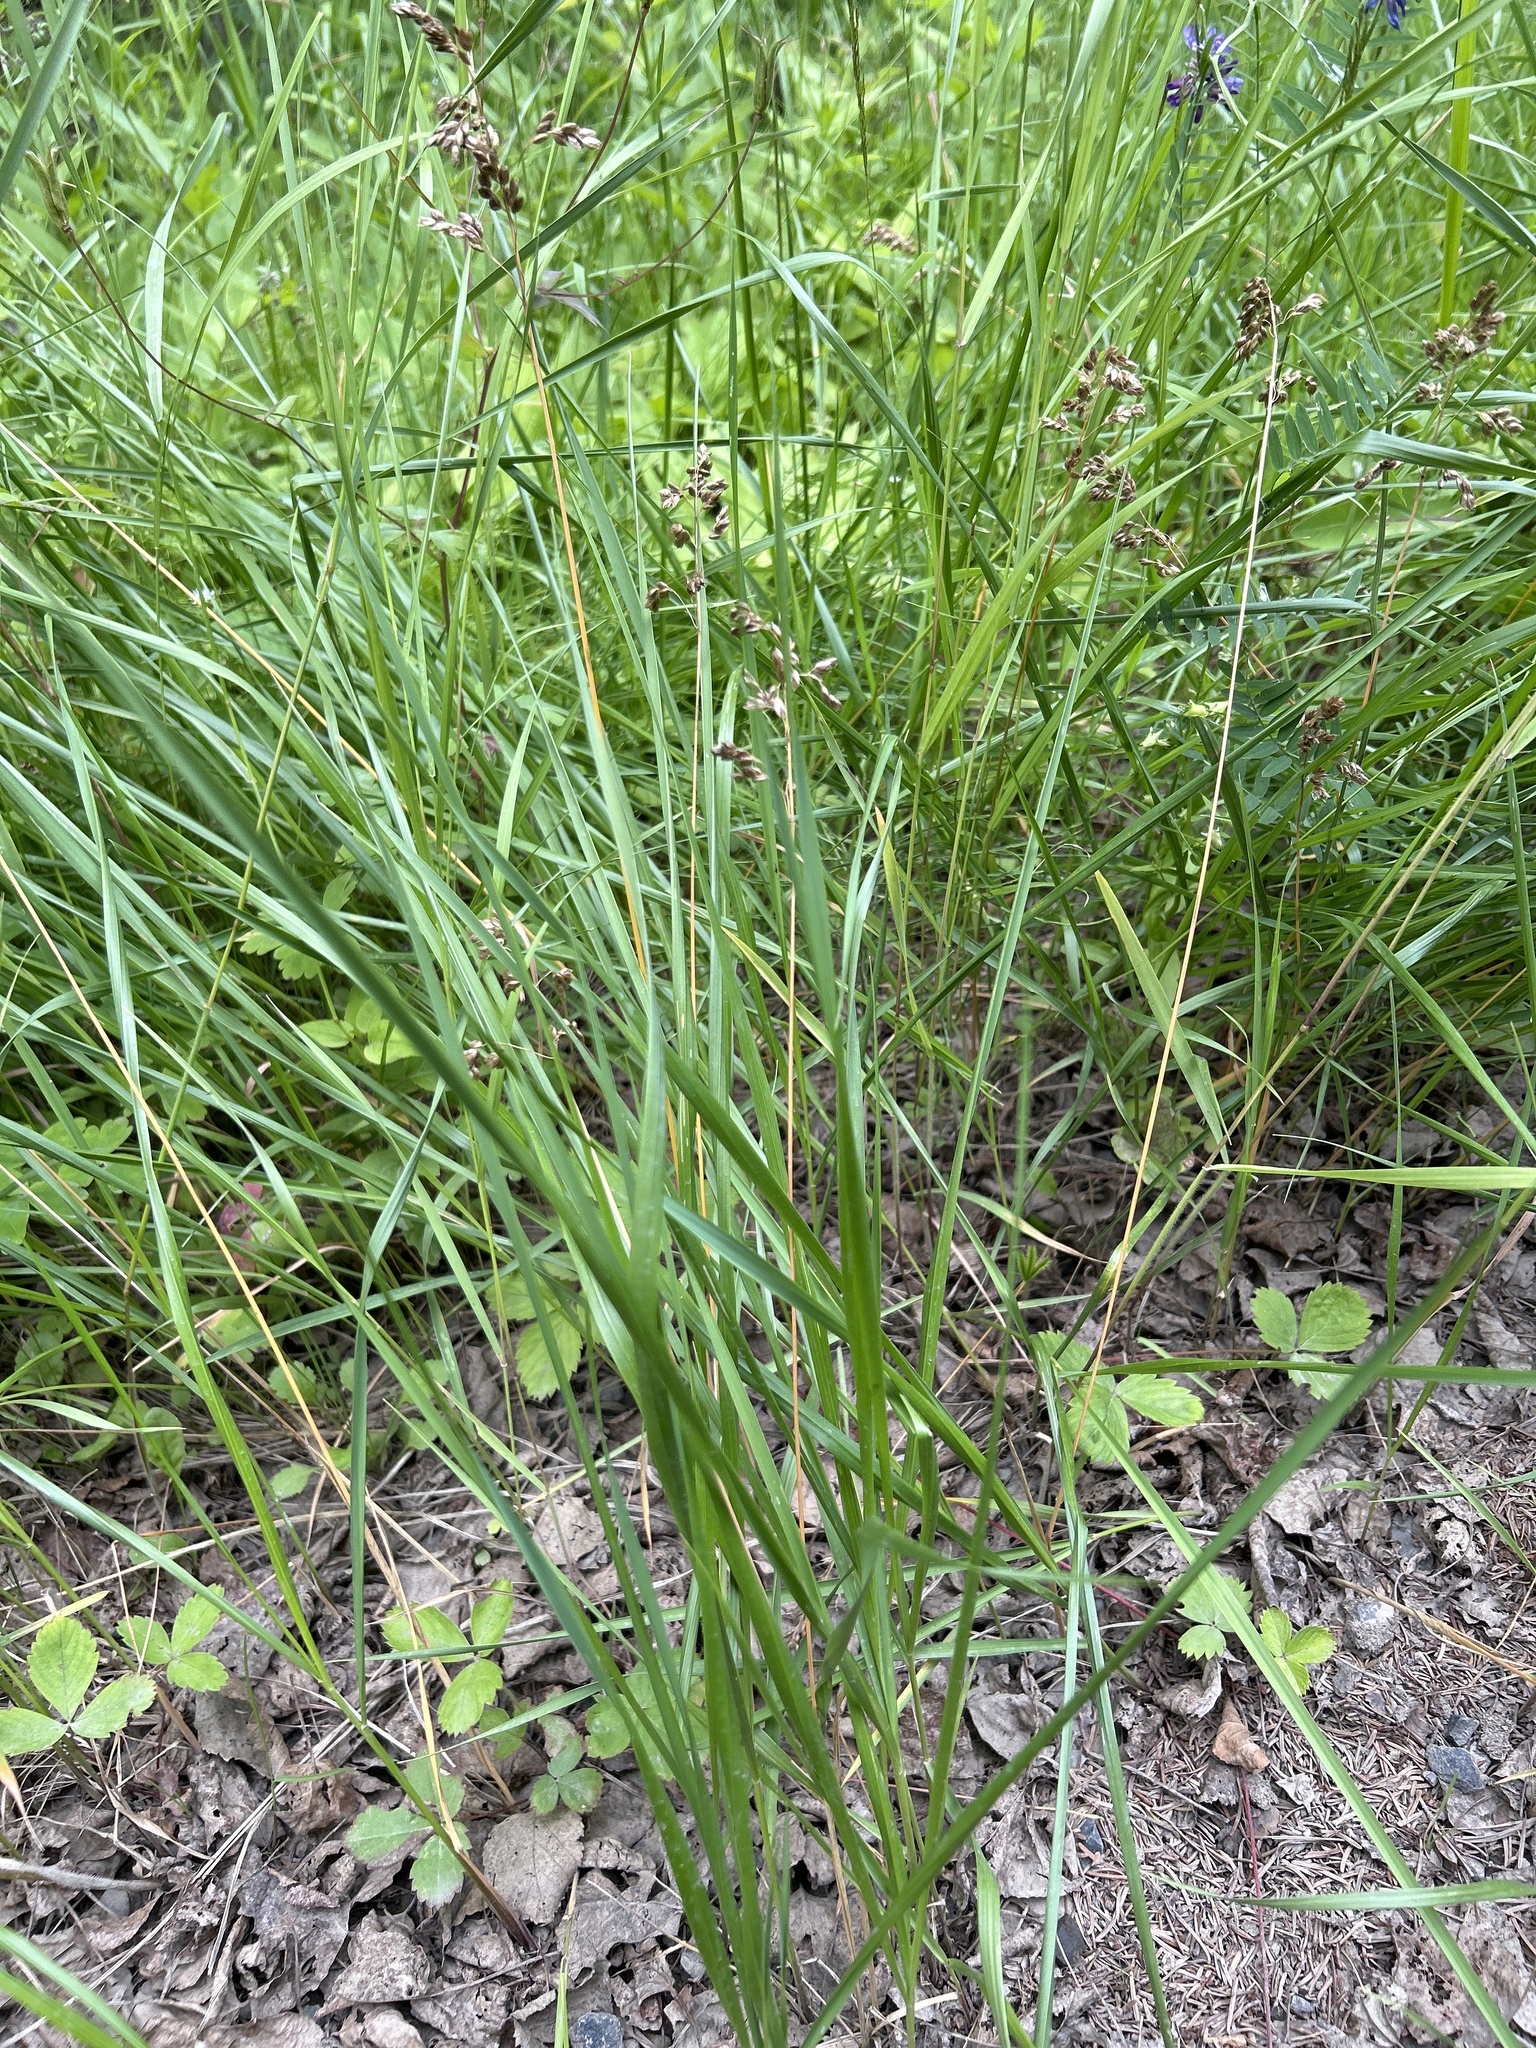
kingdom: Plantae
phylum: Tracheophyta
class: Liliopsida
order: Poales
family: Poaceae
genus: Anthoxanthum
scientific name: Anthoxanthum nitens
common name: Holy grass
